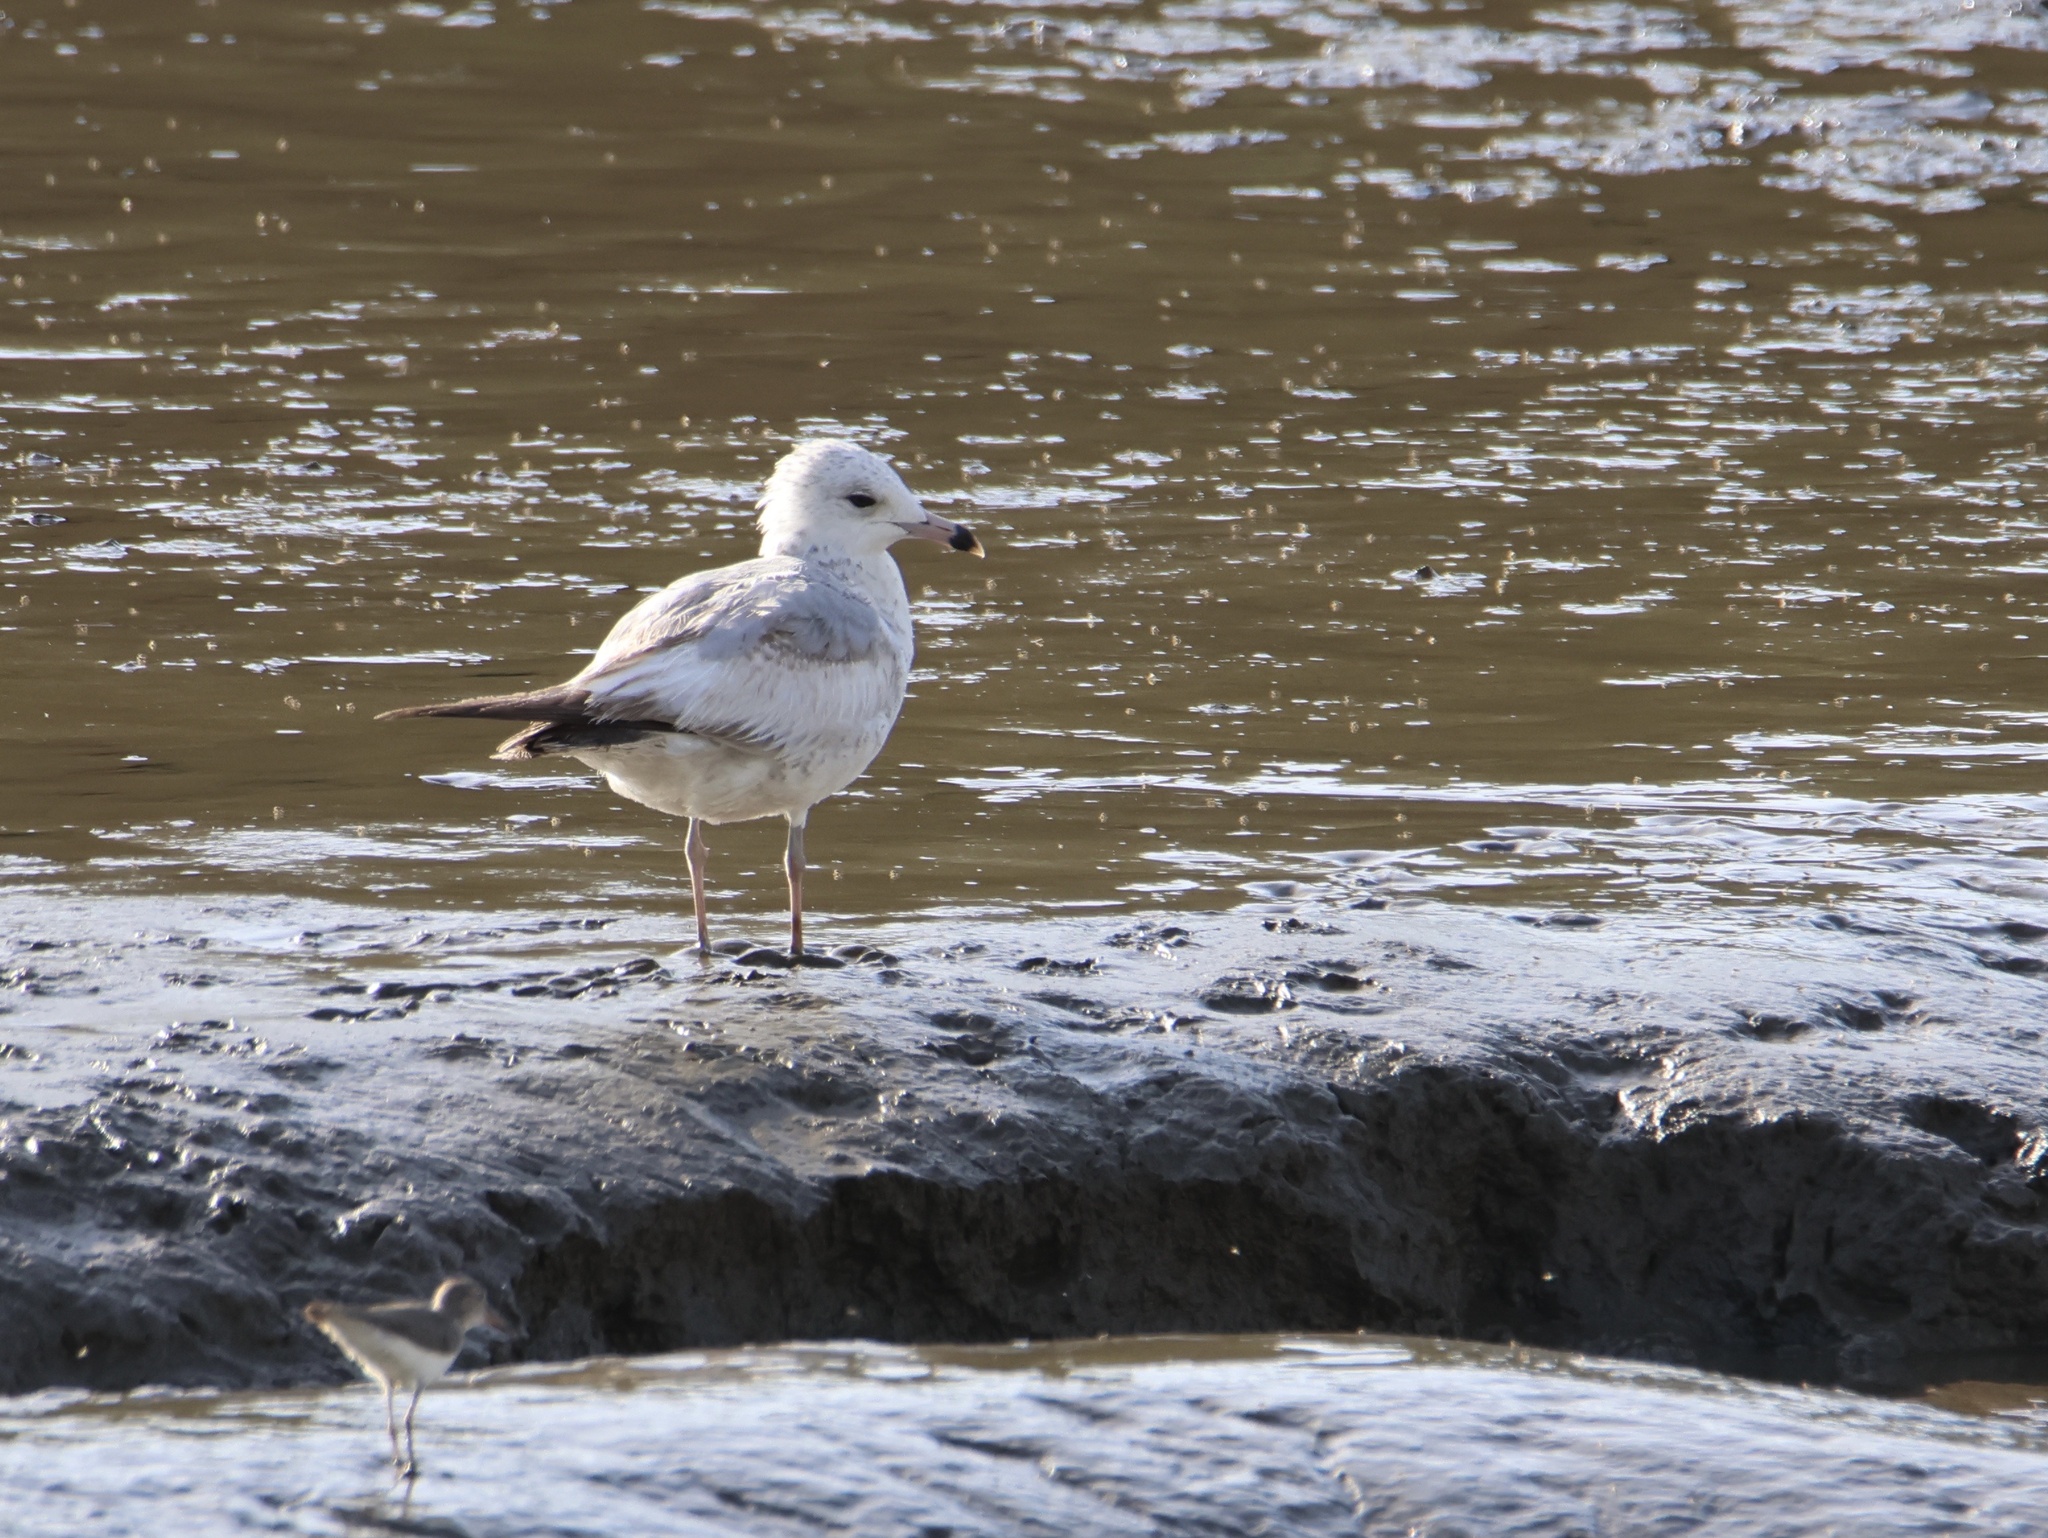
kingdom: Animalia
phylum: Chordata
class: Aves
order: Charadriiformes
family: Laridae
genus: Larus
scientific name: Larus delawarensis
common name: Ring-billed gull
